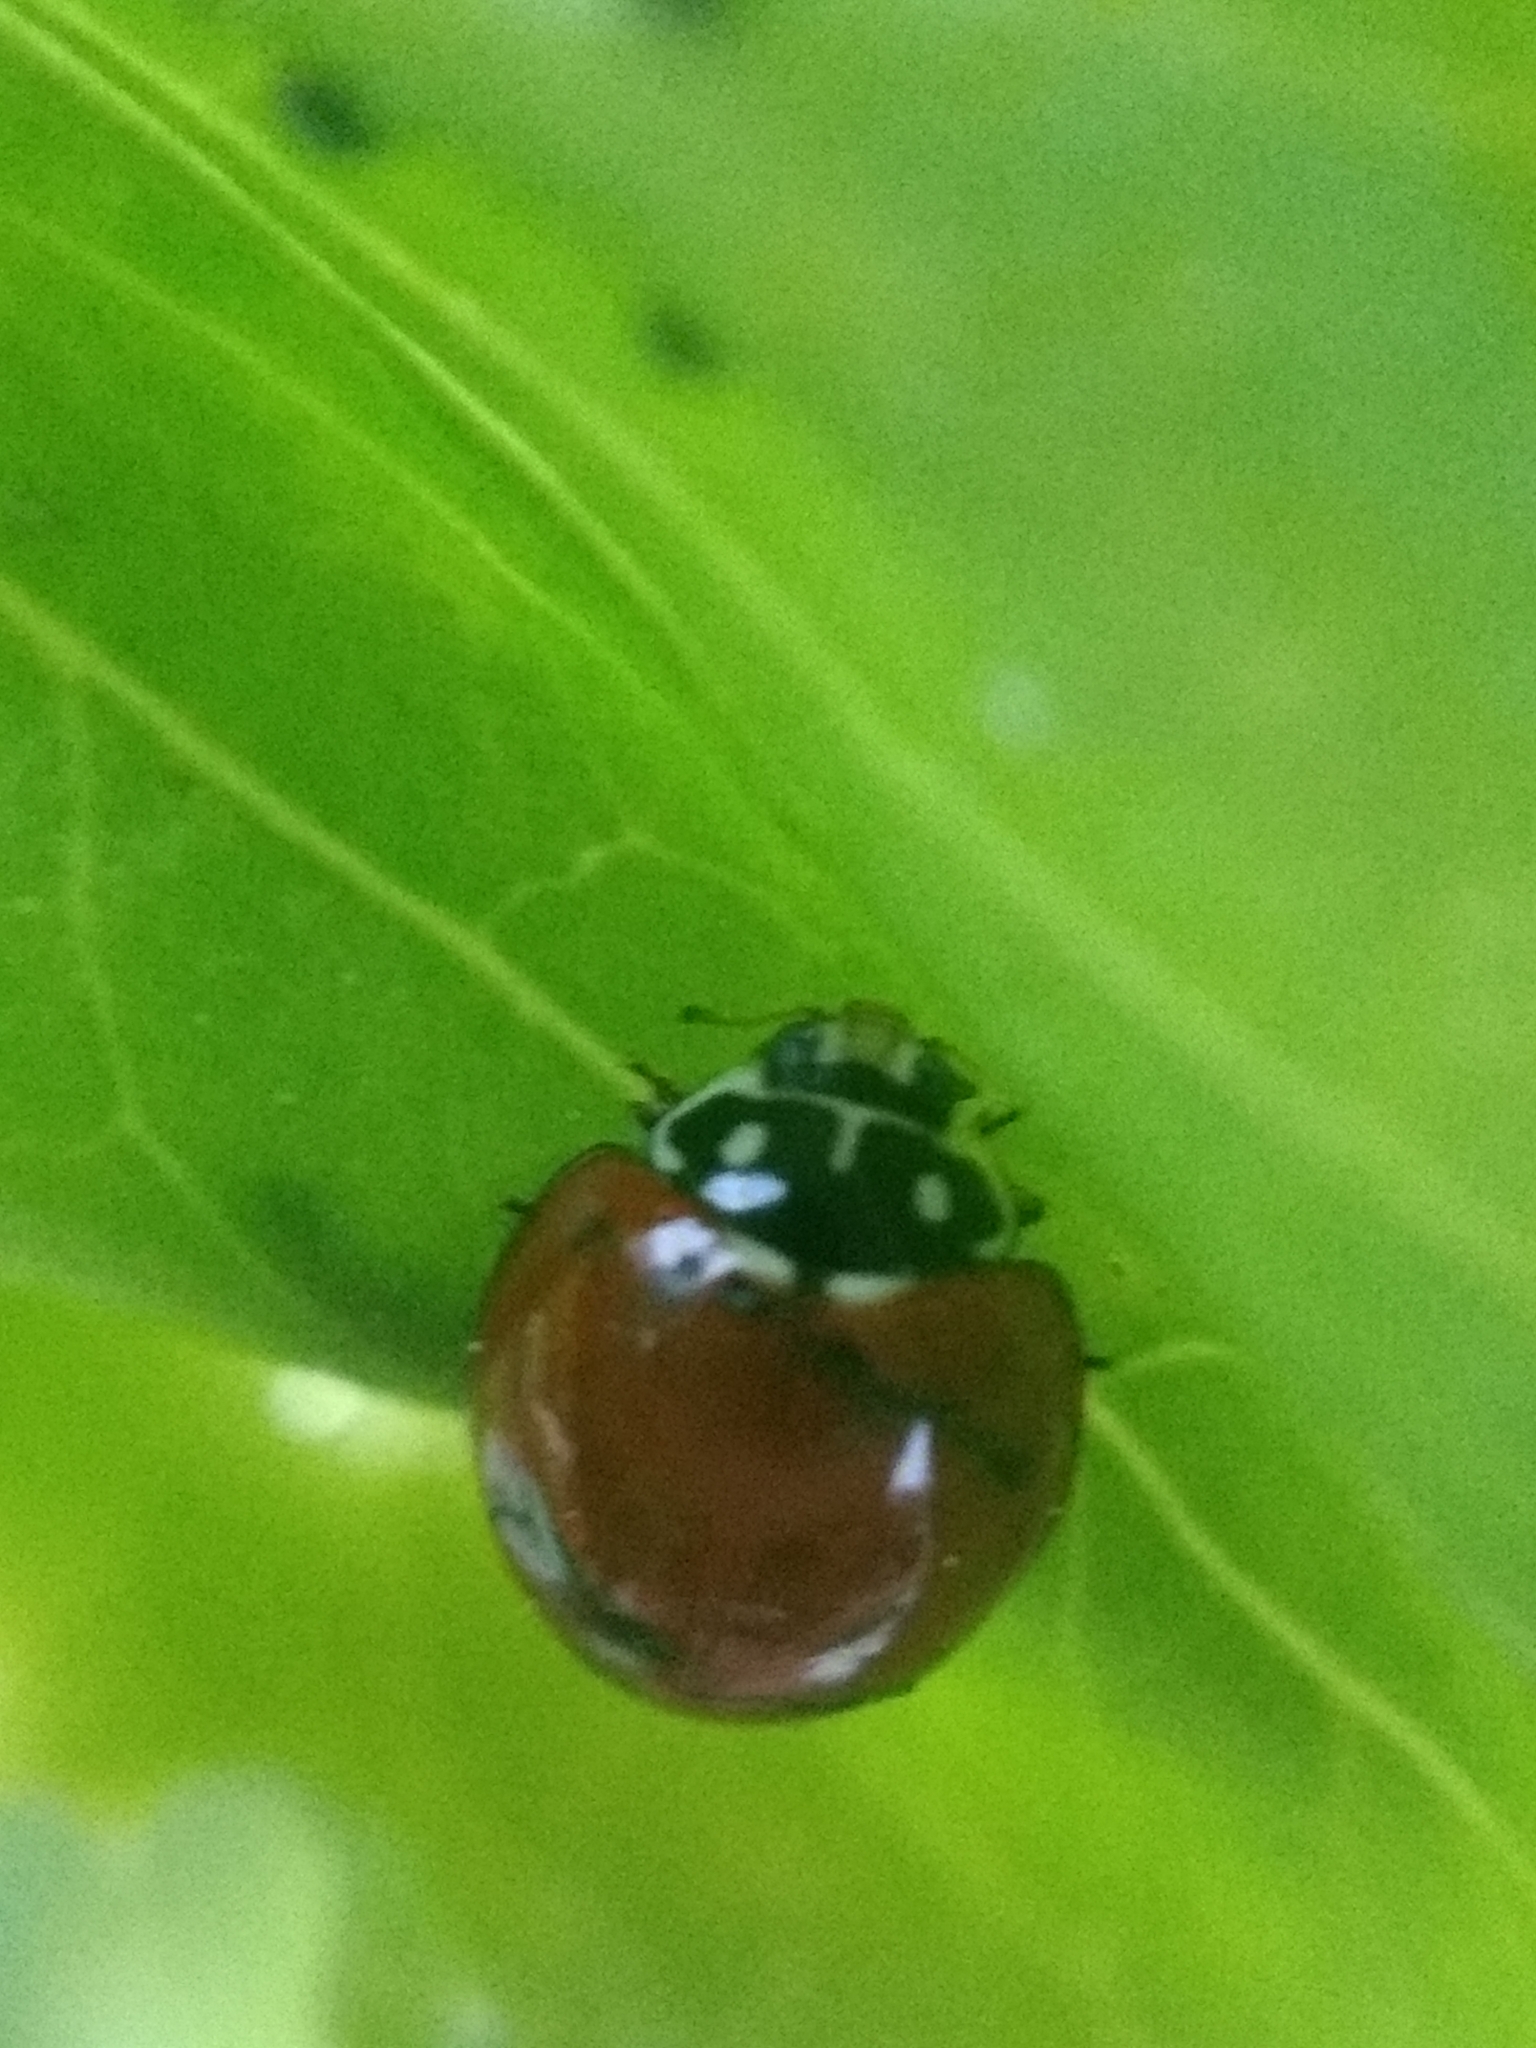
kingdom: Animalia
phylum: Arthropoda
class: Insecta
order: Coleoptera
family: Coccinellidae
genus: Cycloneda
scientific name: Cycloneda sanguinea
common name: Ladybird beetle
